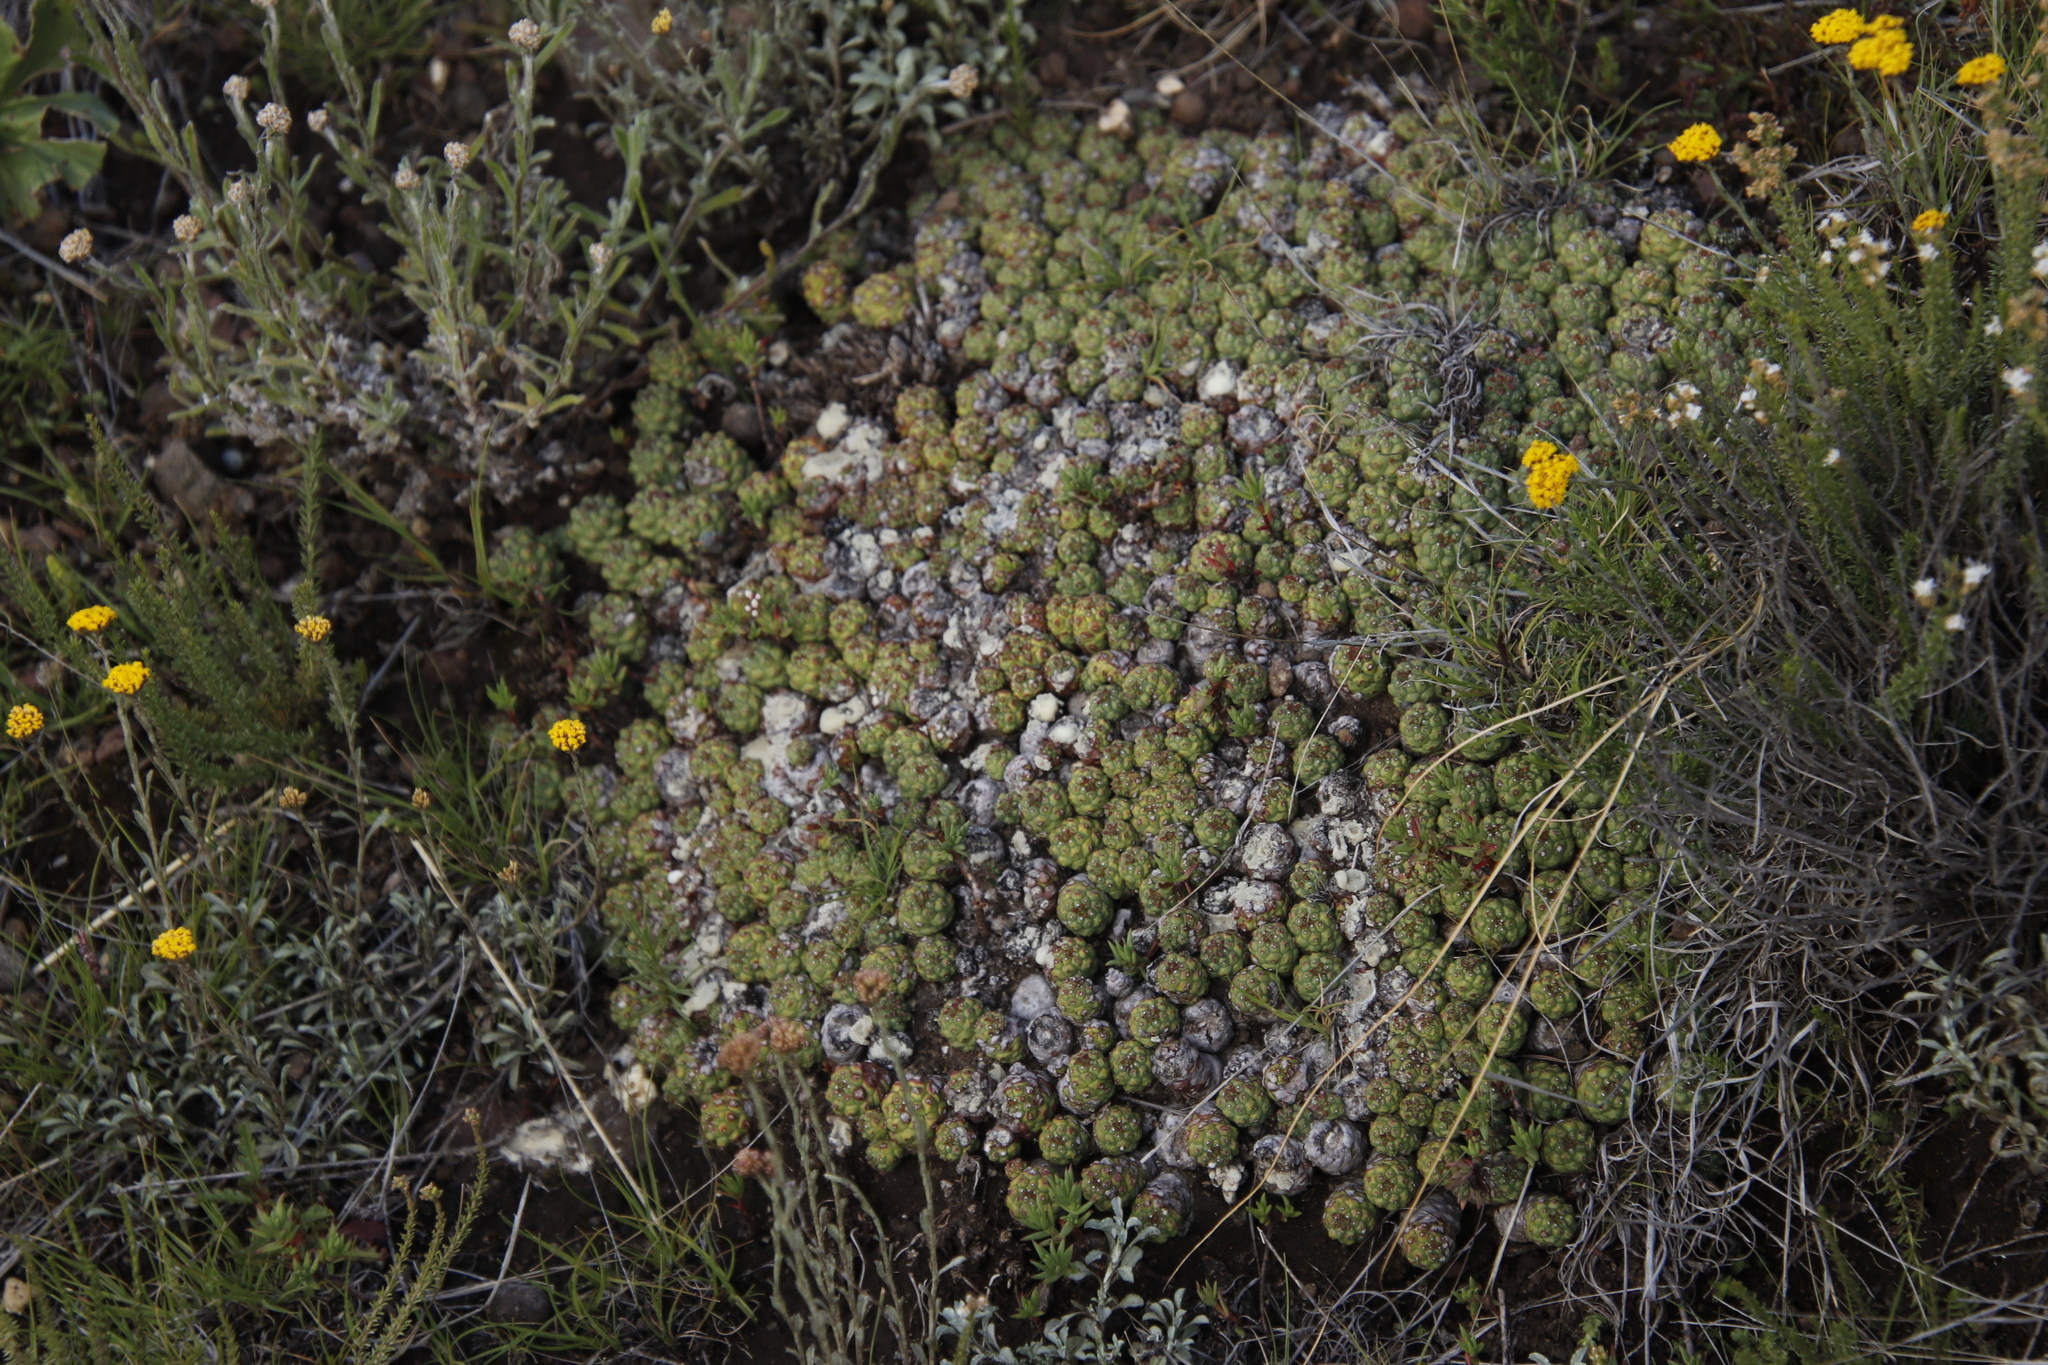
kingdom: Plantae
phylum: Tracheophyta
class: Magnoliopsida
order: Malpighiales
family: Euphorbiaceae
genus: Euphorbia
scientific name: Euphorbia clavarioides
